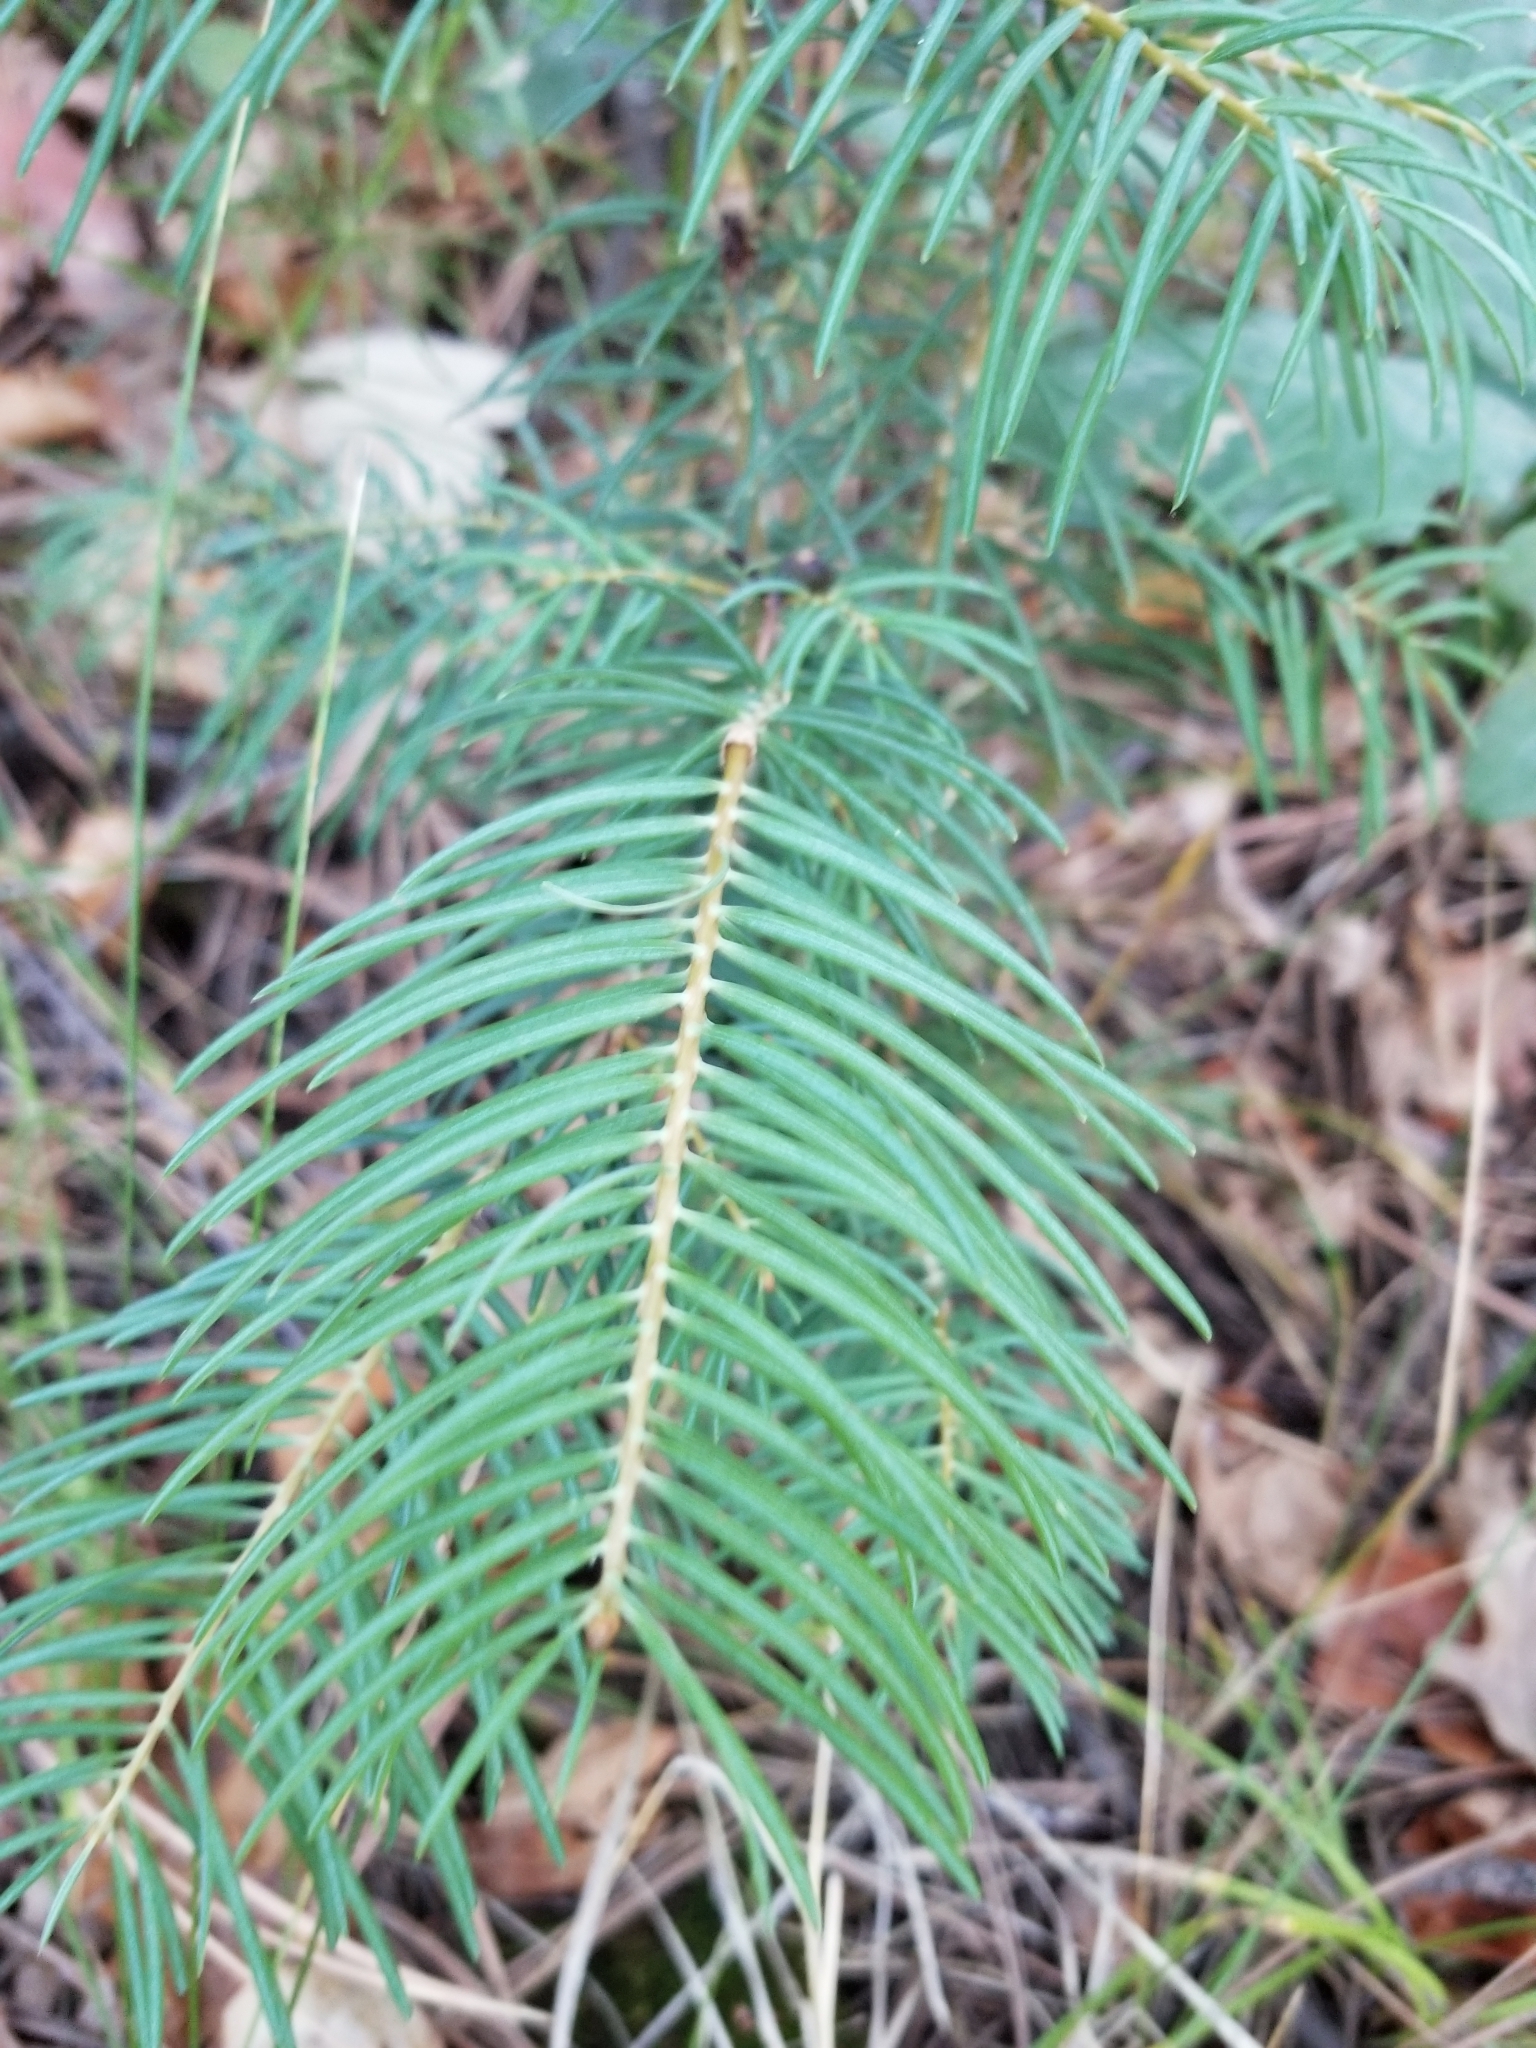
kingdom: Plantae
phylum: Tracheophyta
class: Pinopsida
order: Pinales
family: Pinaceae
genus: Abies
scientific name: Abies concolor
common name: Colorado fir
